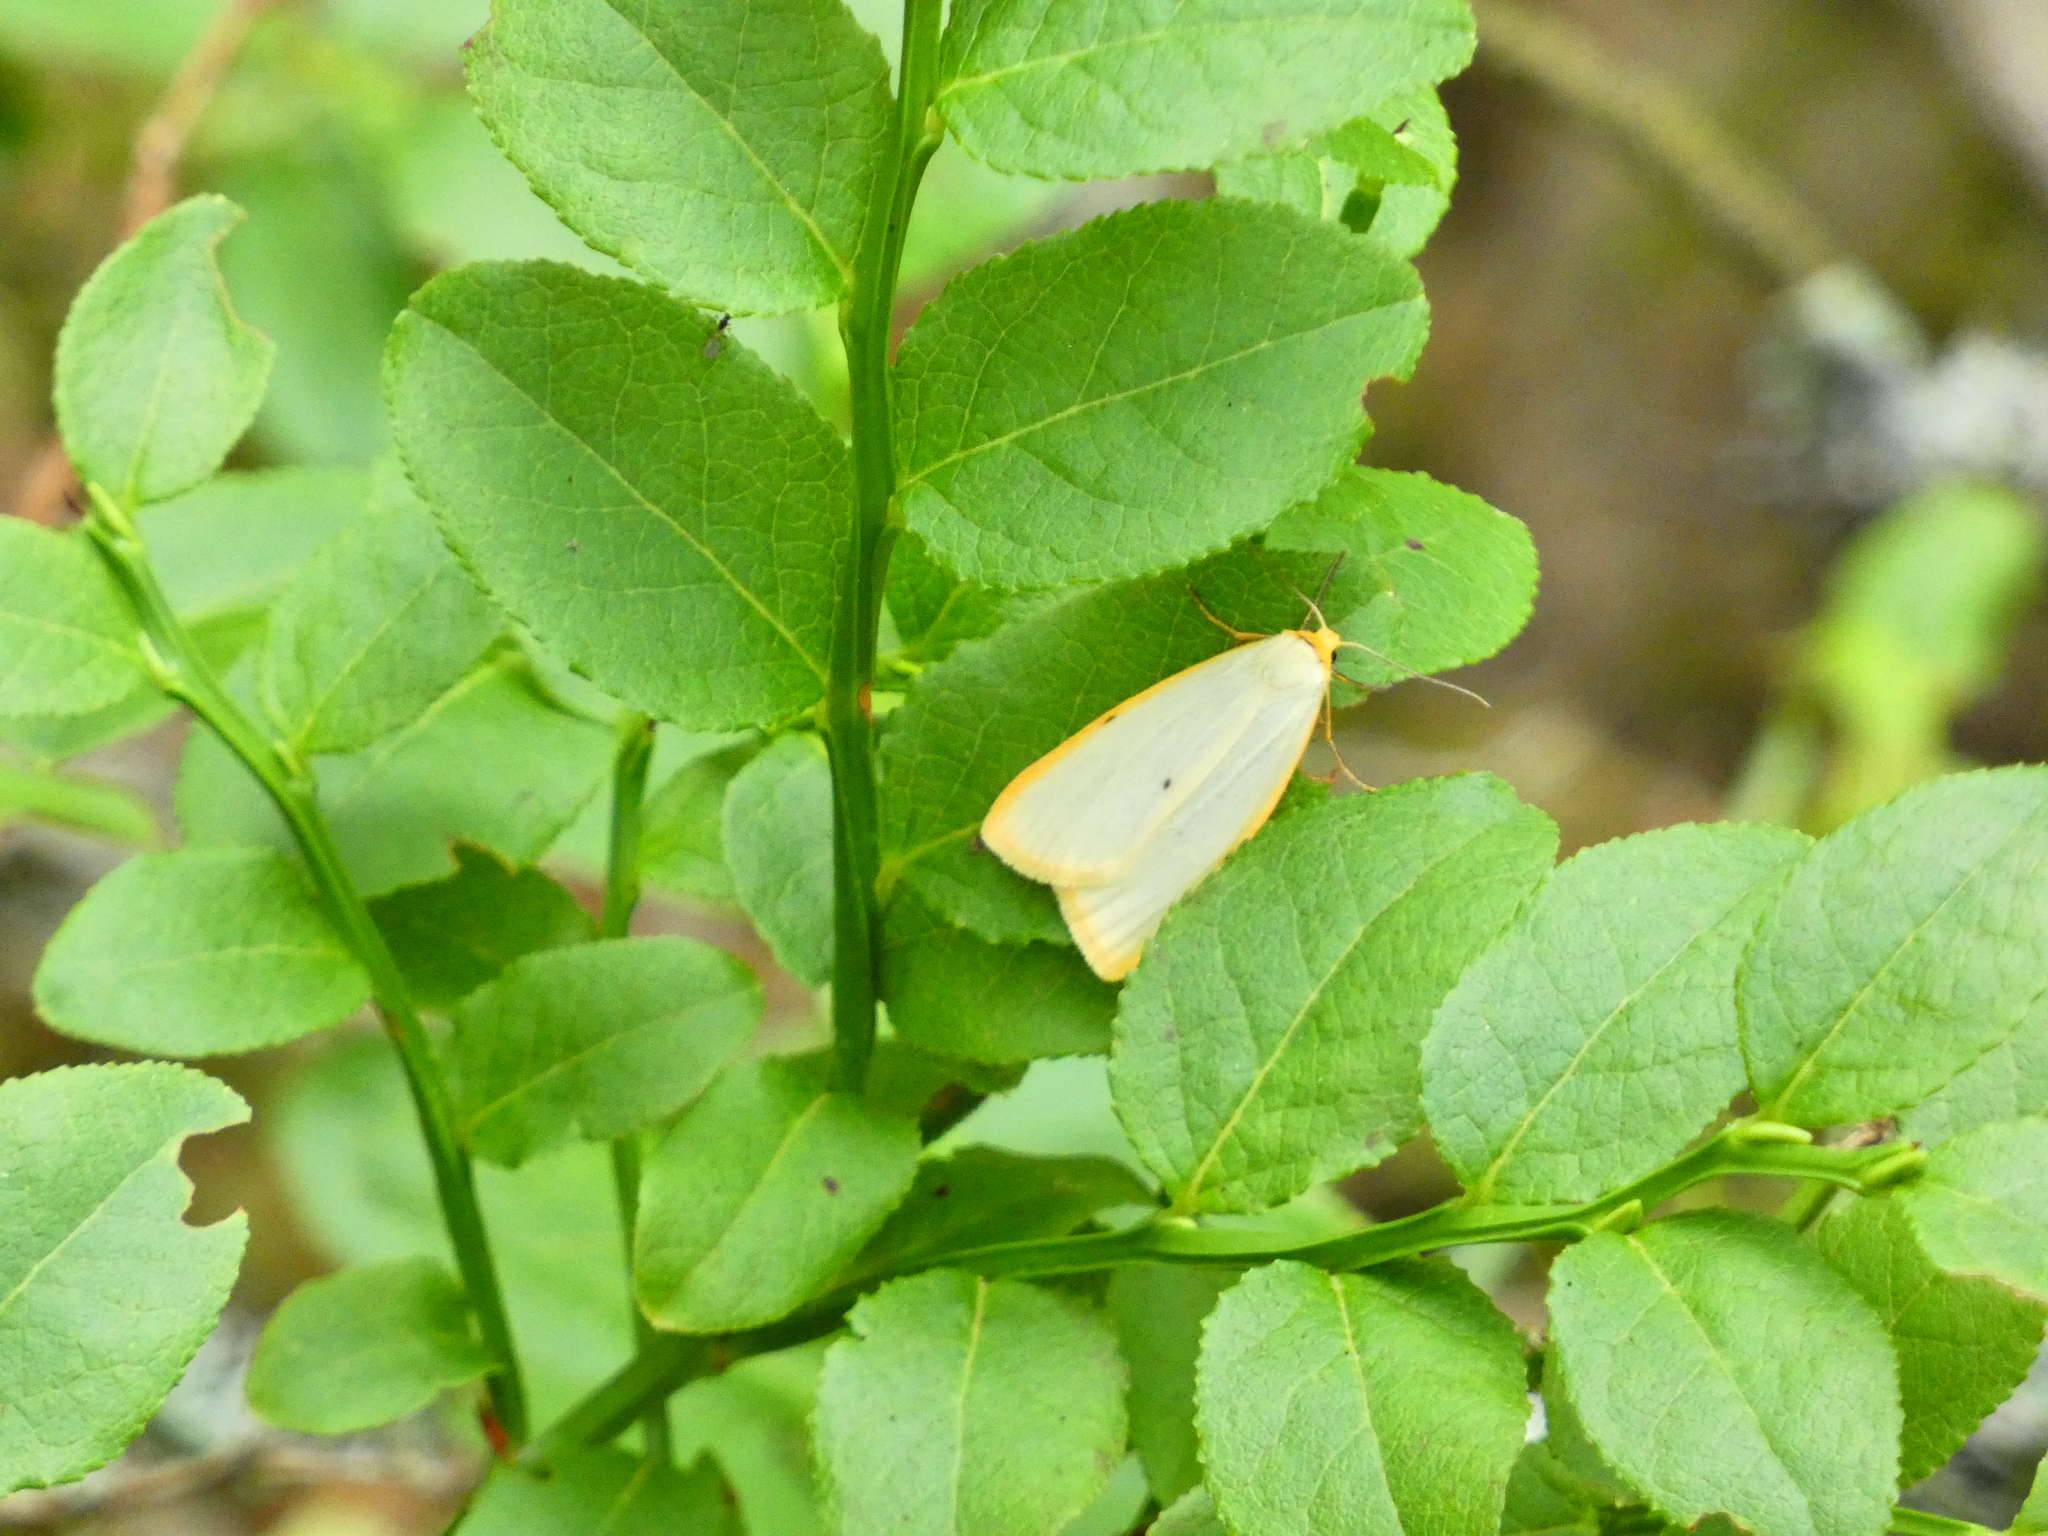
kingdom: Animalia
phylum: Arthropoda
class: Insecta
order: Lepidoptera
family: Erebidae
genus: Cybosia
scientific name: Cybosia mesomella
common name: Four-dotted footman
